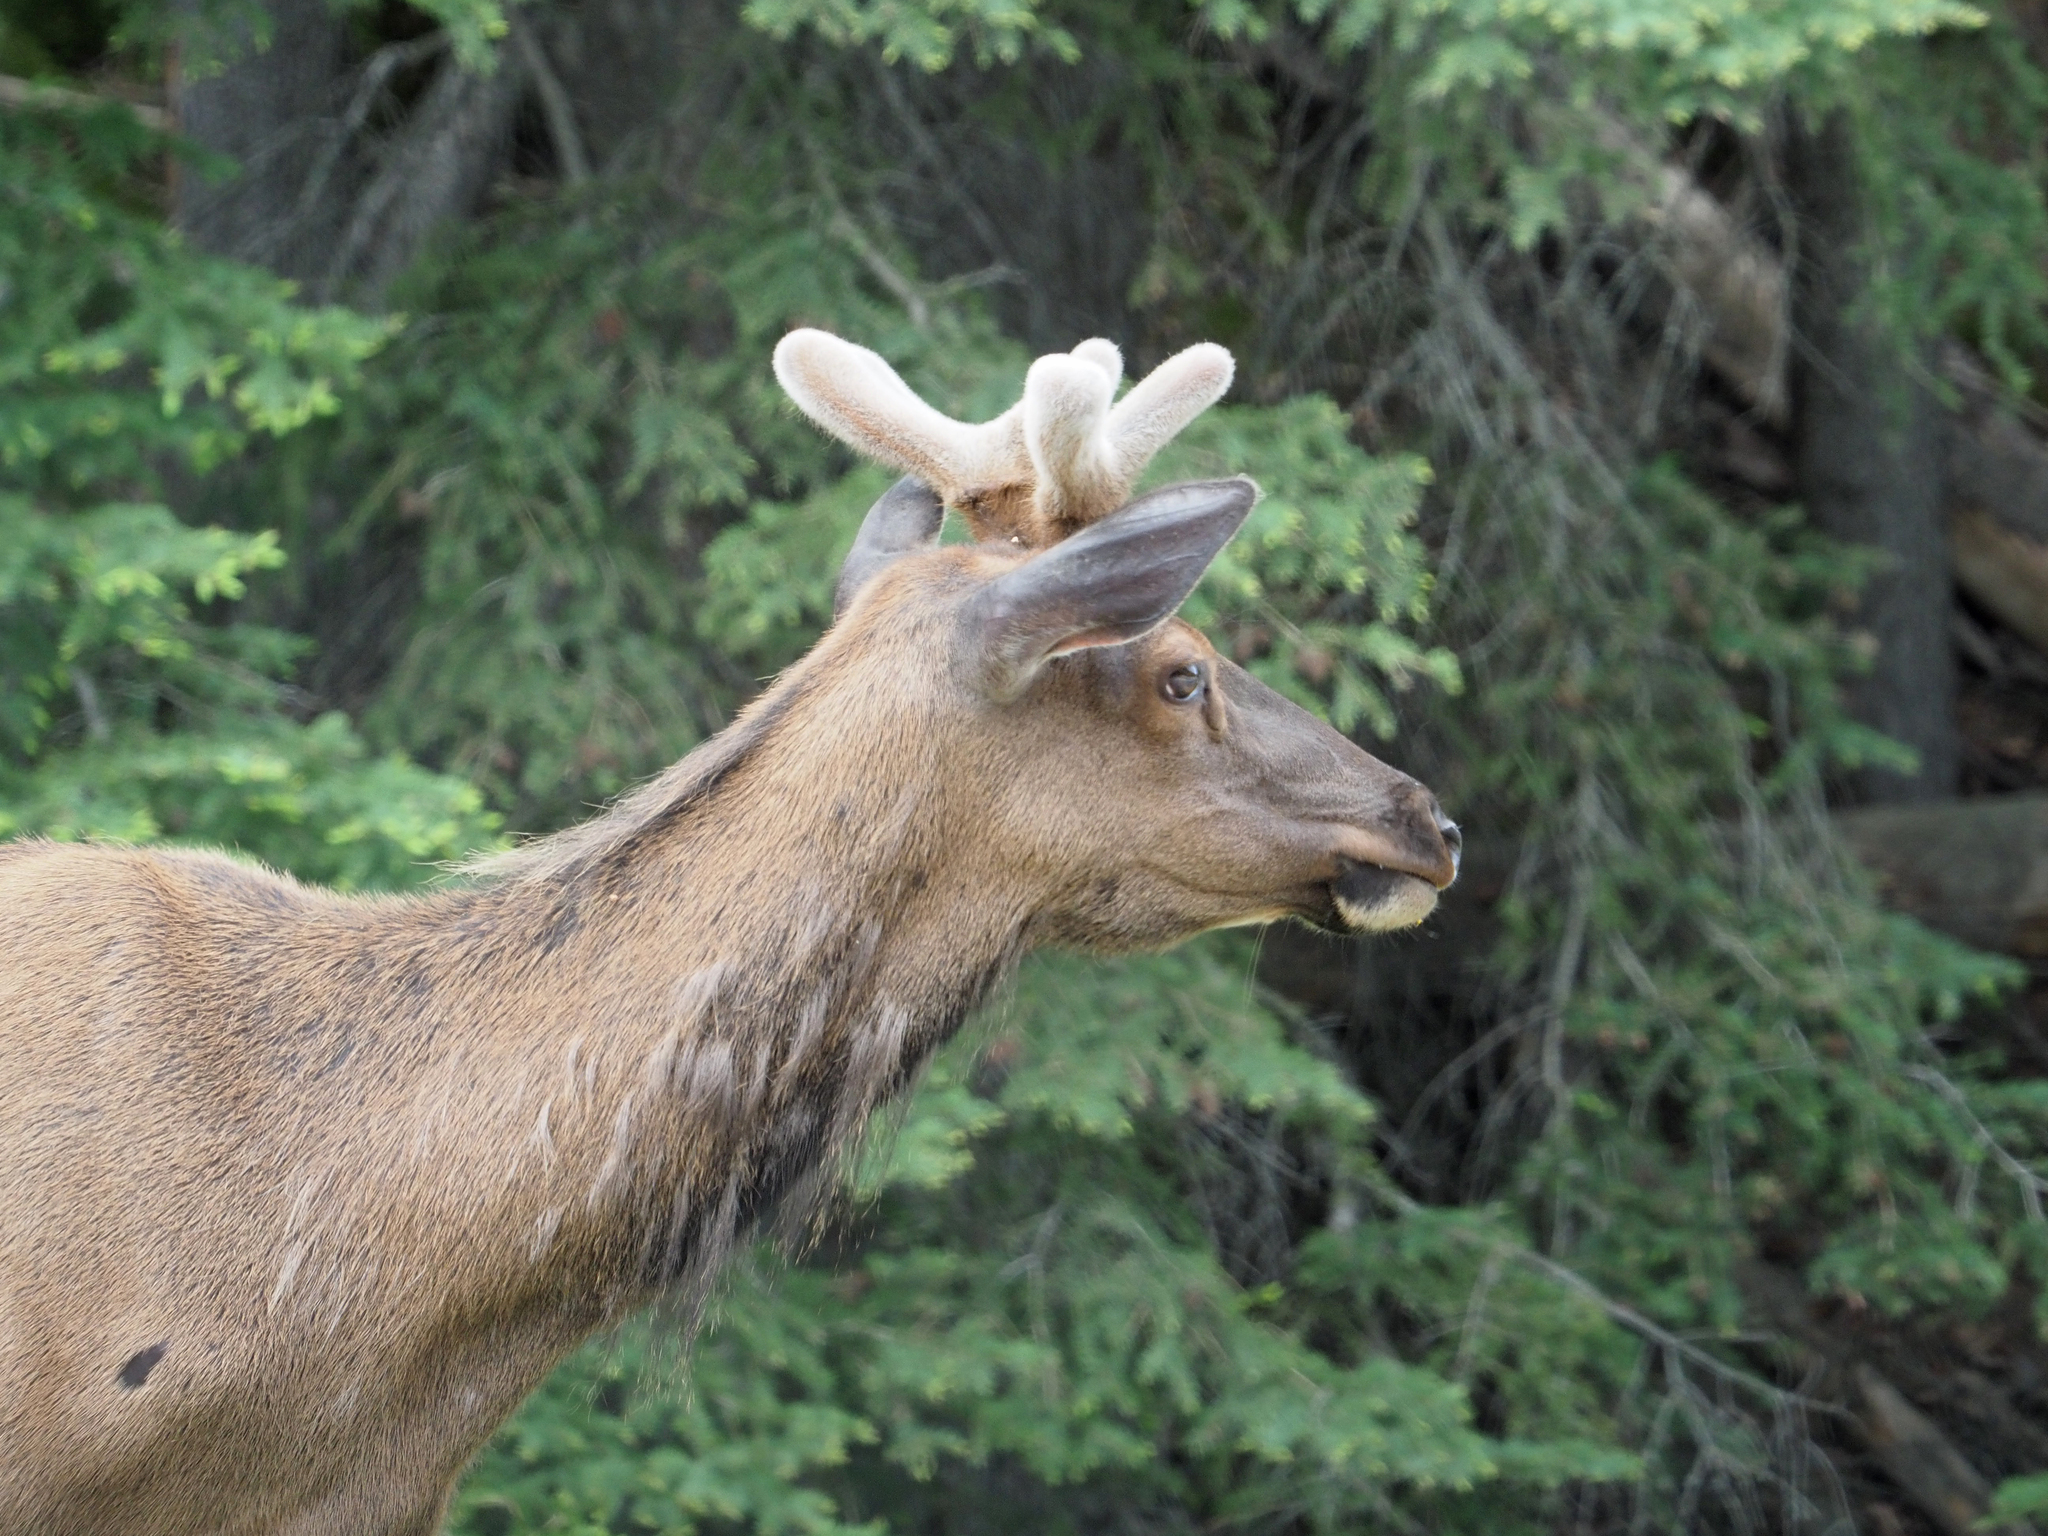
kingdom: Animalia
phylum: Chordata
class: Mammalia
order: Artiodactyla
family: Cervidae
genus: Cervus
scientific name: Cervus elaphus
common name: Red deer
